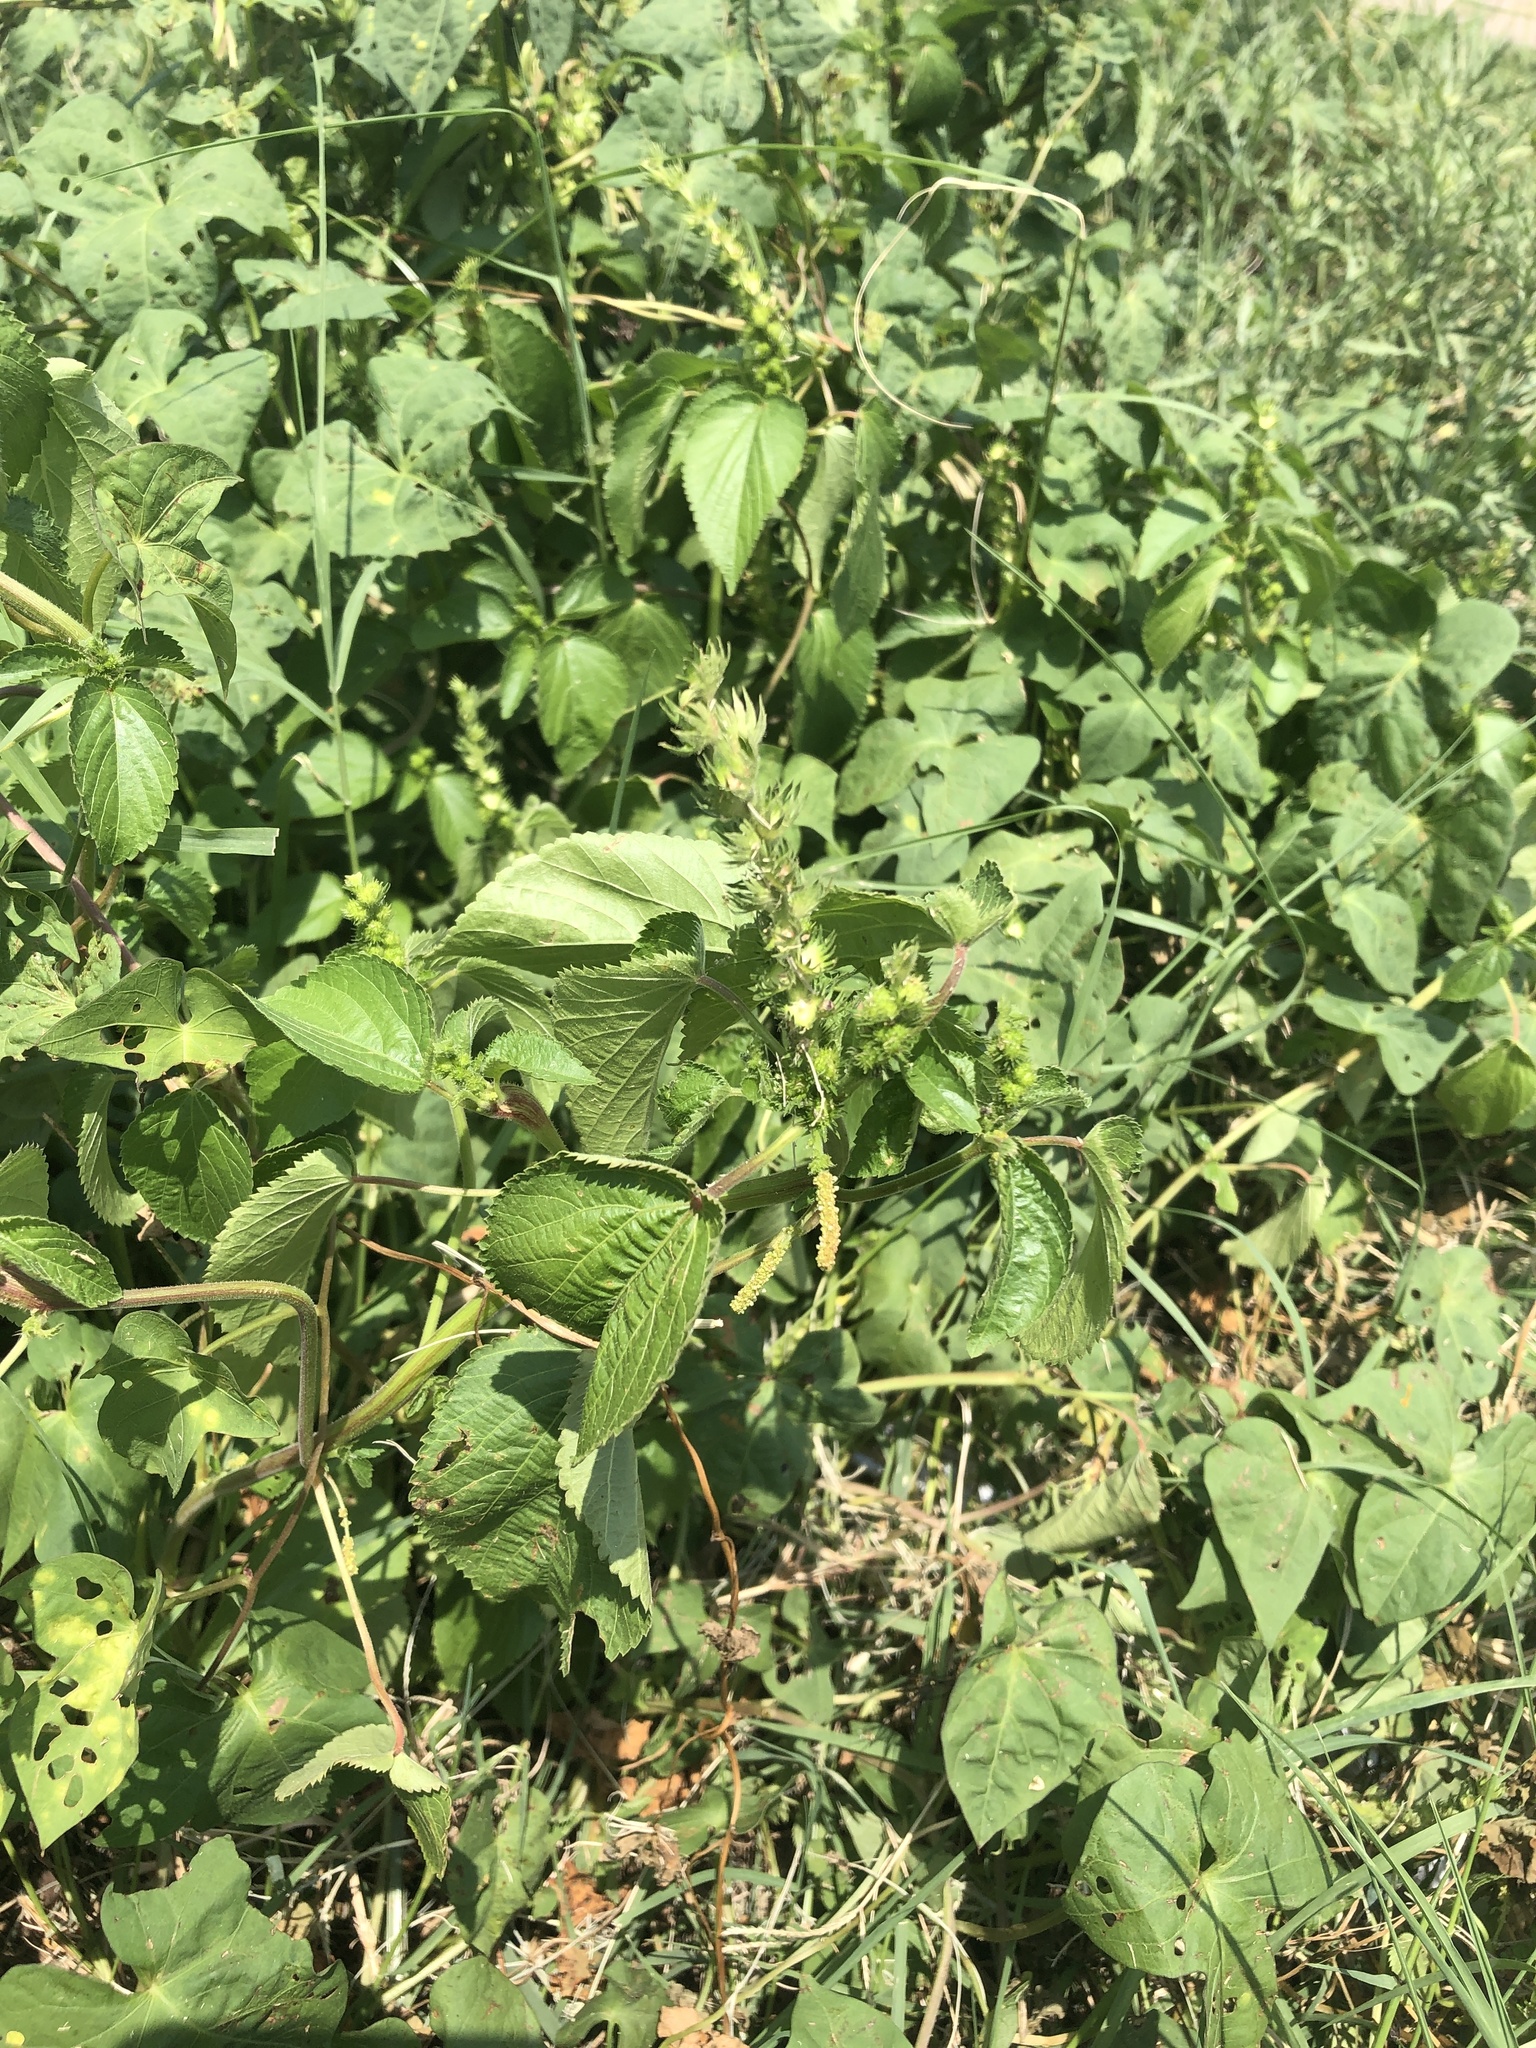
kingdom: Plantae
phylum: Tracheophyta
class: Magnoliopsida
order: Malpighiales
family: Euphorbiaceae
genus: Acalypha
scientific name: Acalypha ostryifolia
